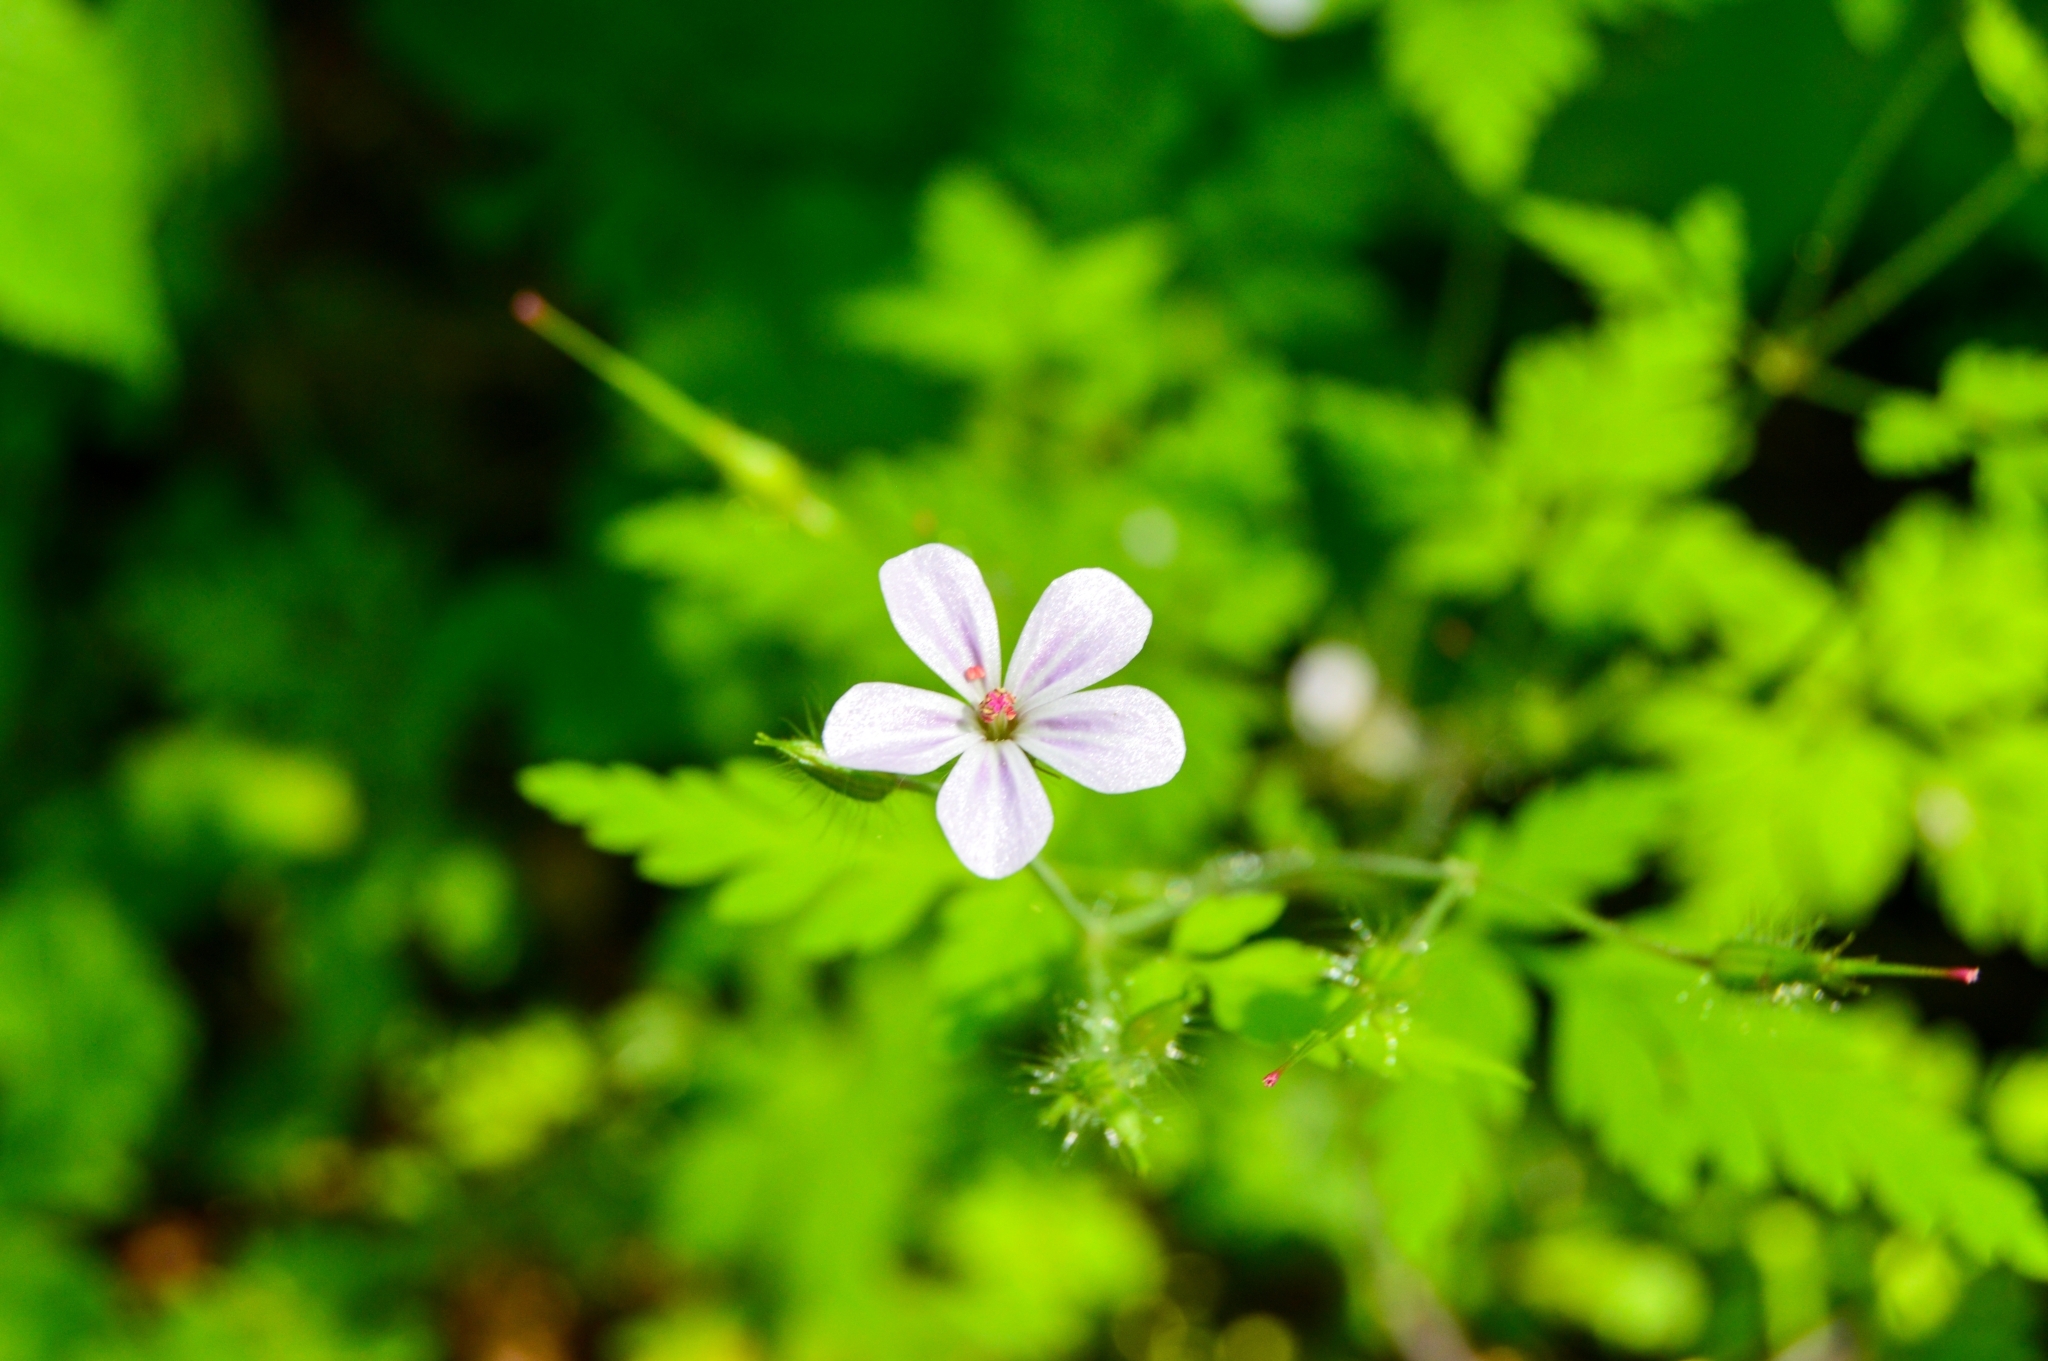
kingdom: Plantae
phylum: Tracheophyta
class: Magnoliopsida
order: Geraniales
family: Geraniaceae
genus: Geranium
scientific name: Geranium robertianum
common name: Herb-robert
